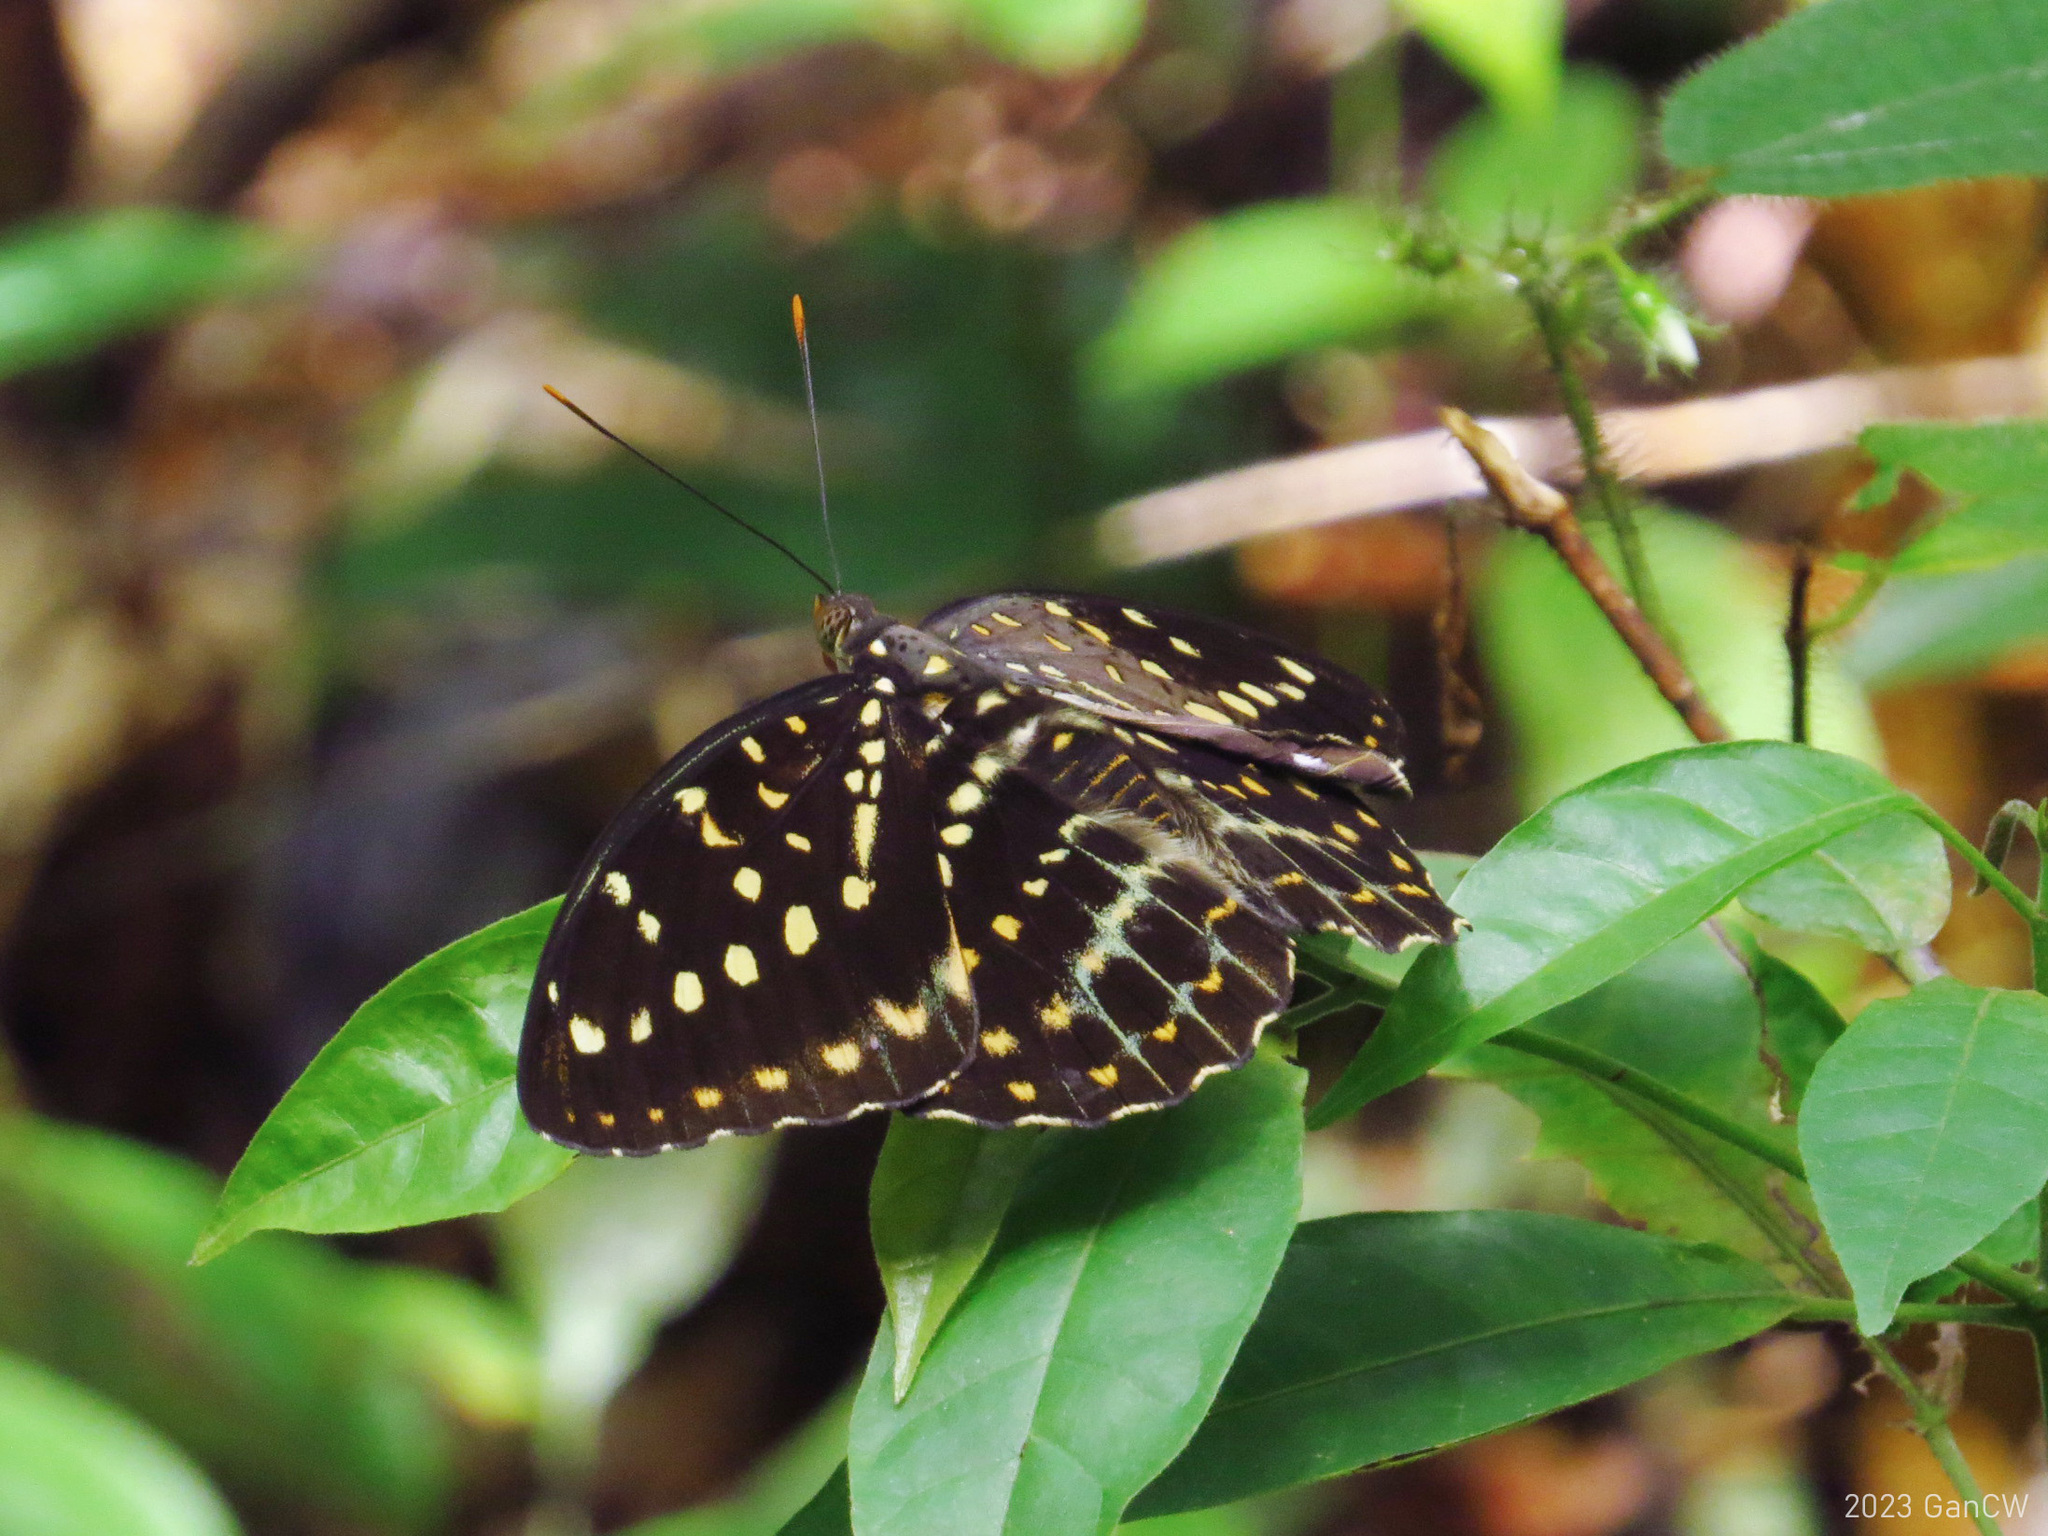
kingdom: Animalia
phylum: Arthropoda
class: Insecta
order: Lepidoptera
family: Nymphalidae
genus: Lexias
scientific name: Lexias pardalis
